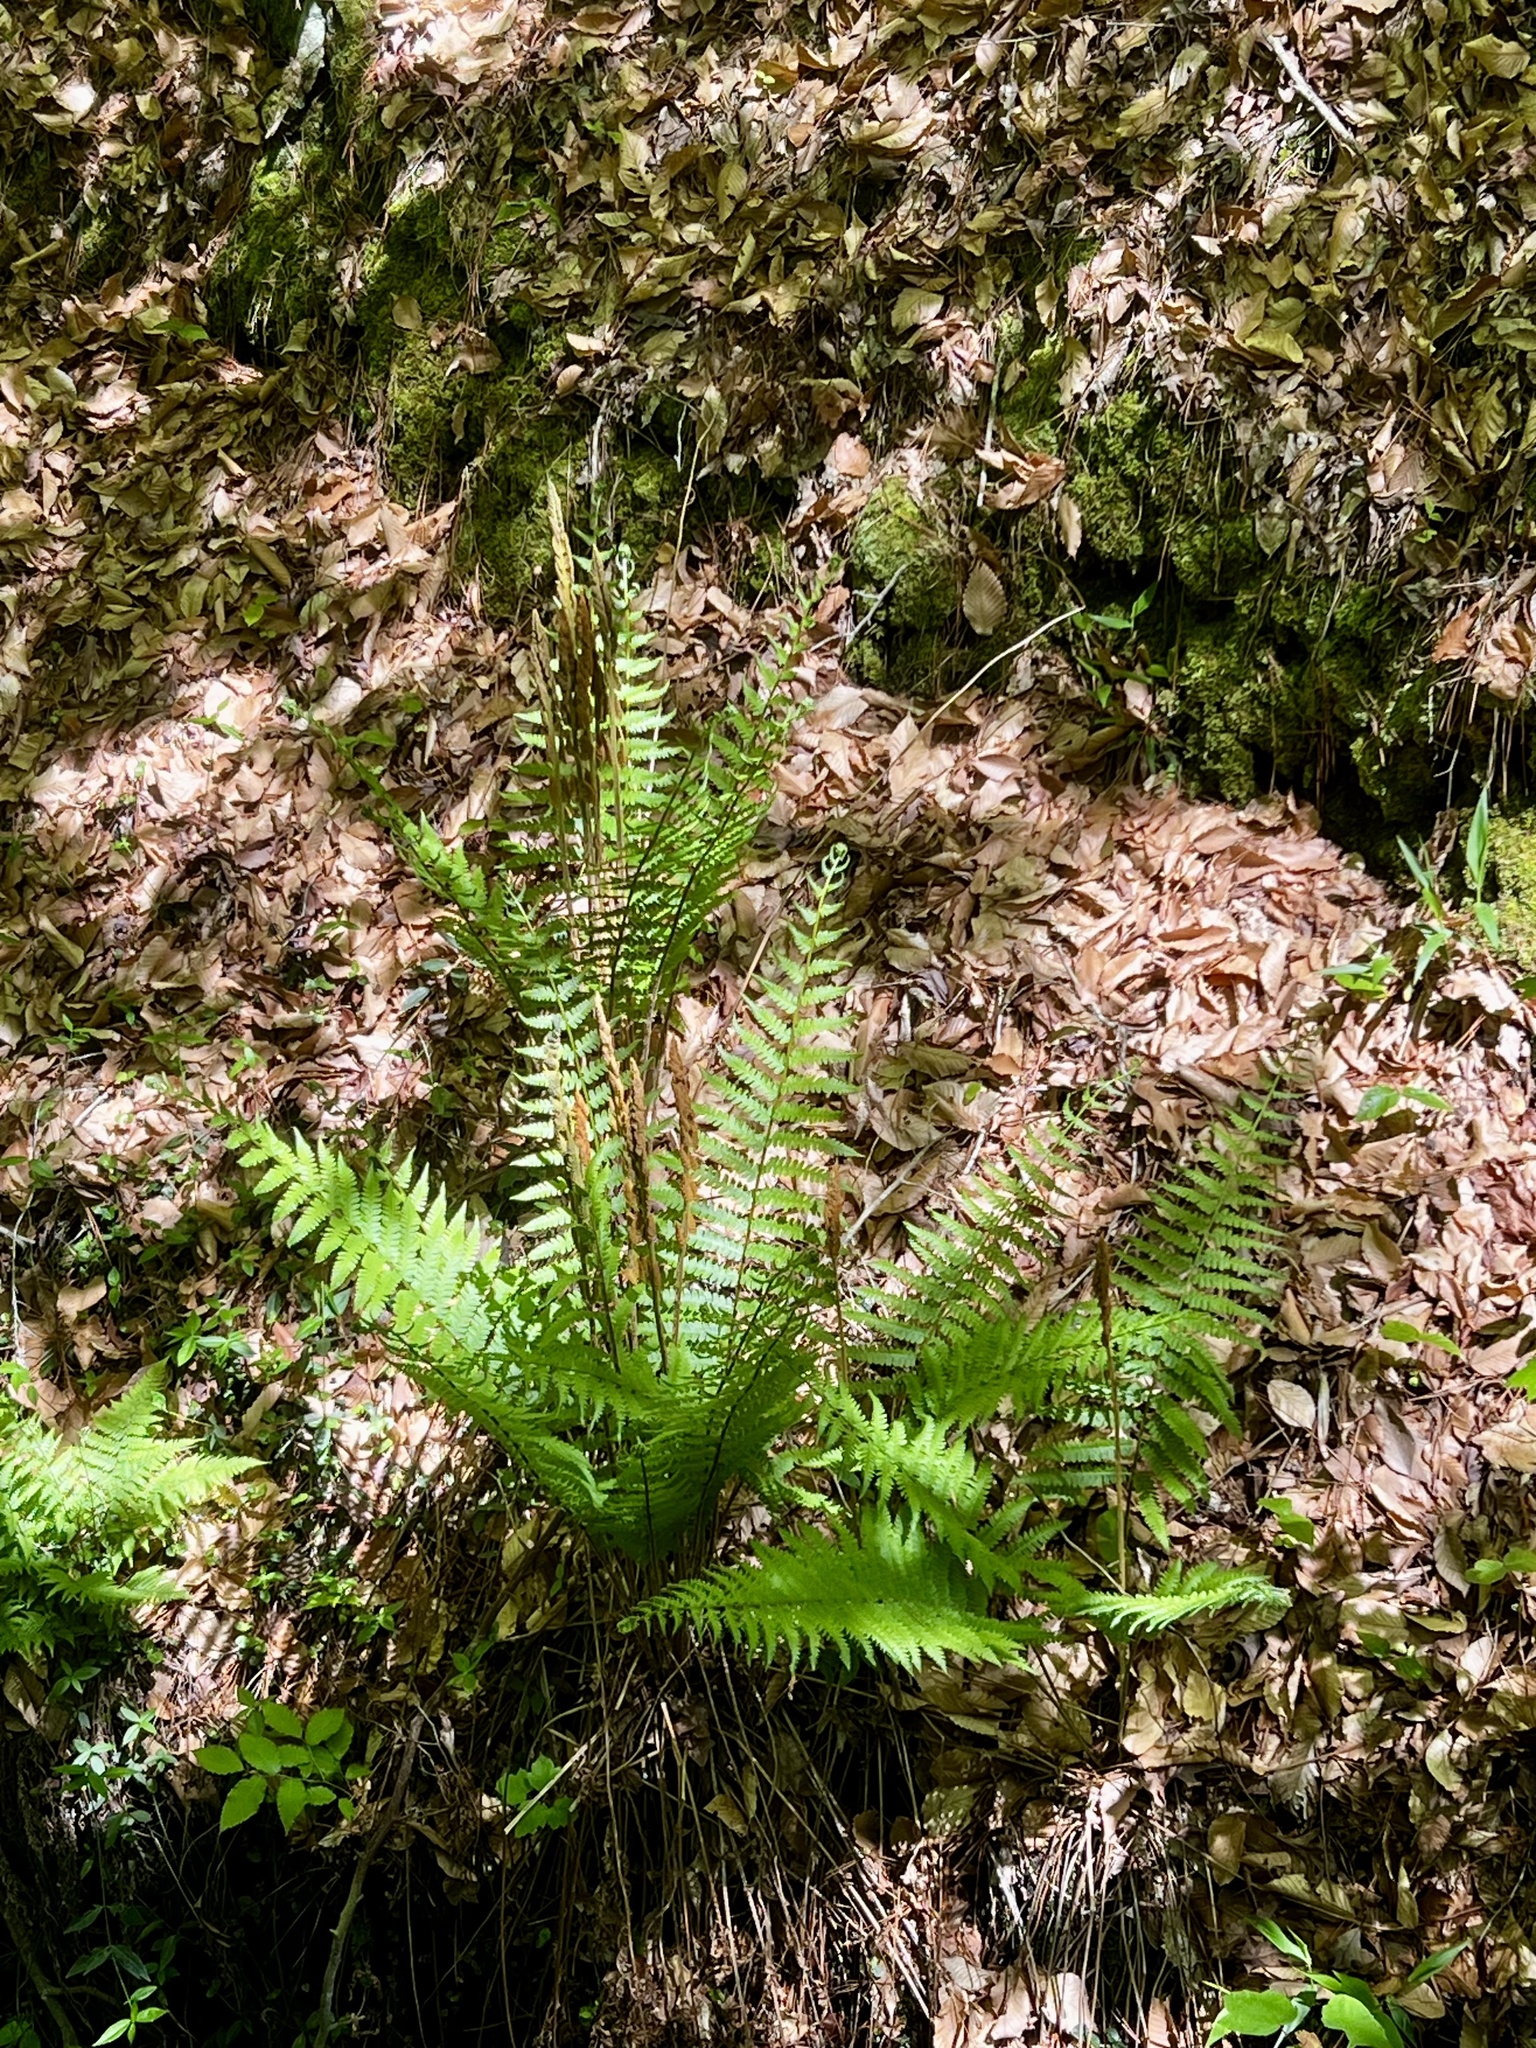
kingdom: Plantae
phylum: Tracheophyta
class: Polypodiopsida
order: Osmundales
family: Osmundaceae
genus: Osmundastrum
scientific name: Osmundastrum cinnamomeum
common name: Cinnamon fern
